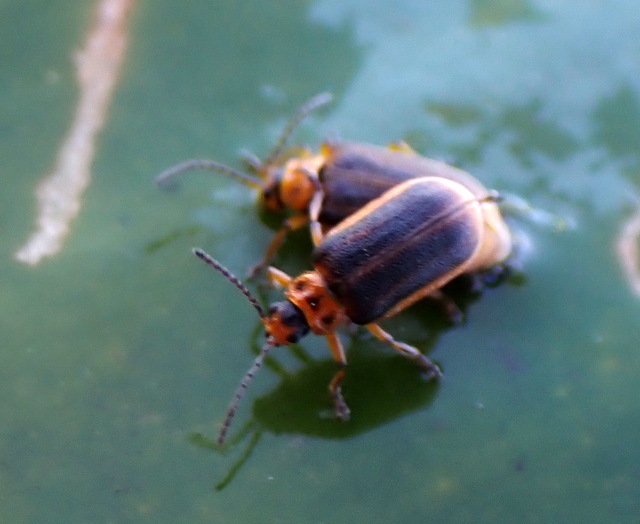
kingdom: Animalia
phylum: Arthropoda
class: Insecta
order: Coleoptera
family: Chrysomelidae
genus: Galerucella
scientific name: Galerucella nymphaeae
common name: Leaf beetle
